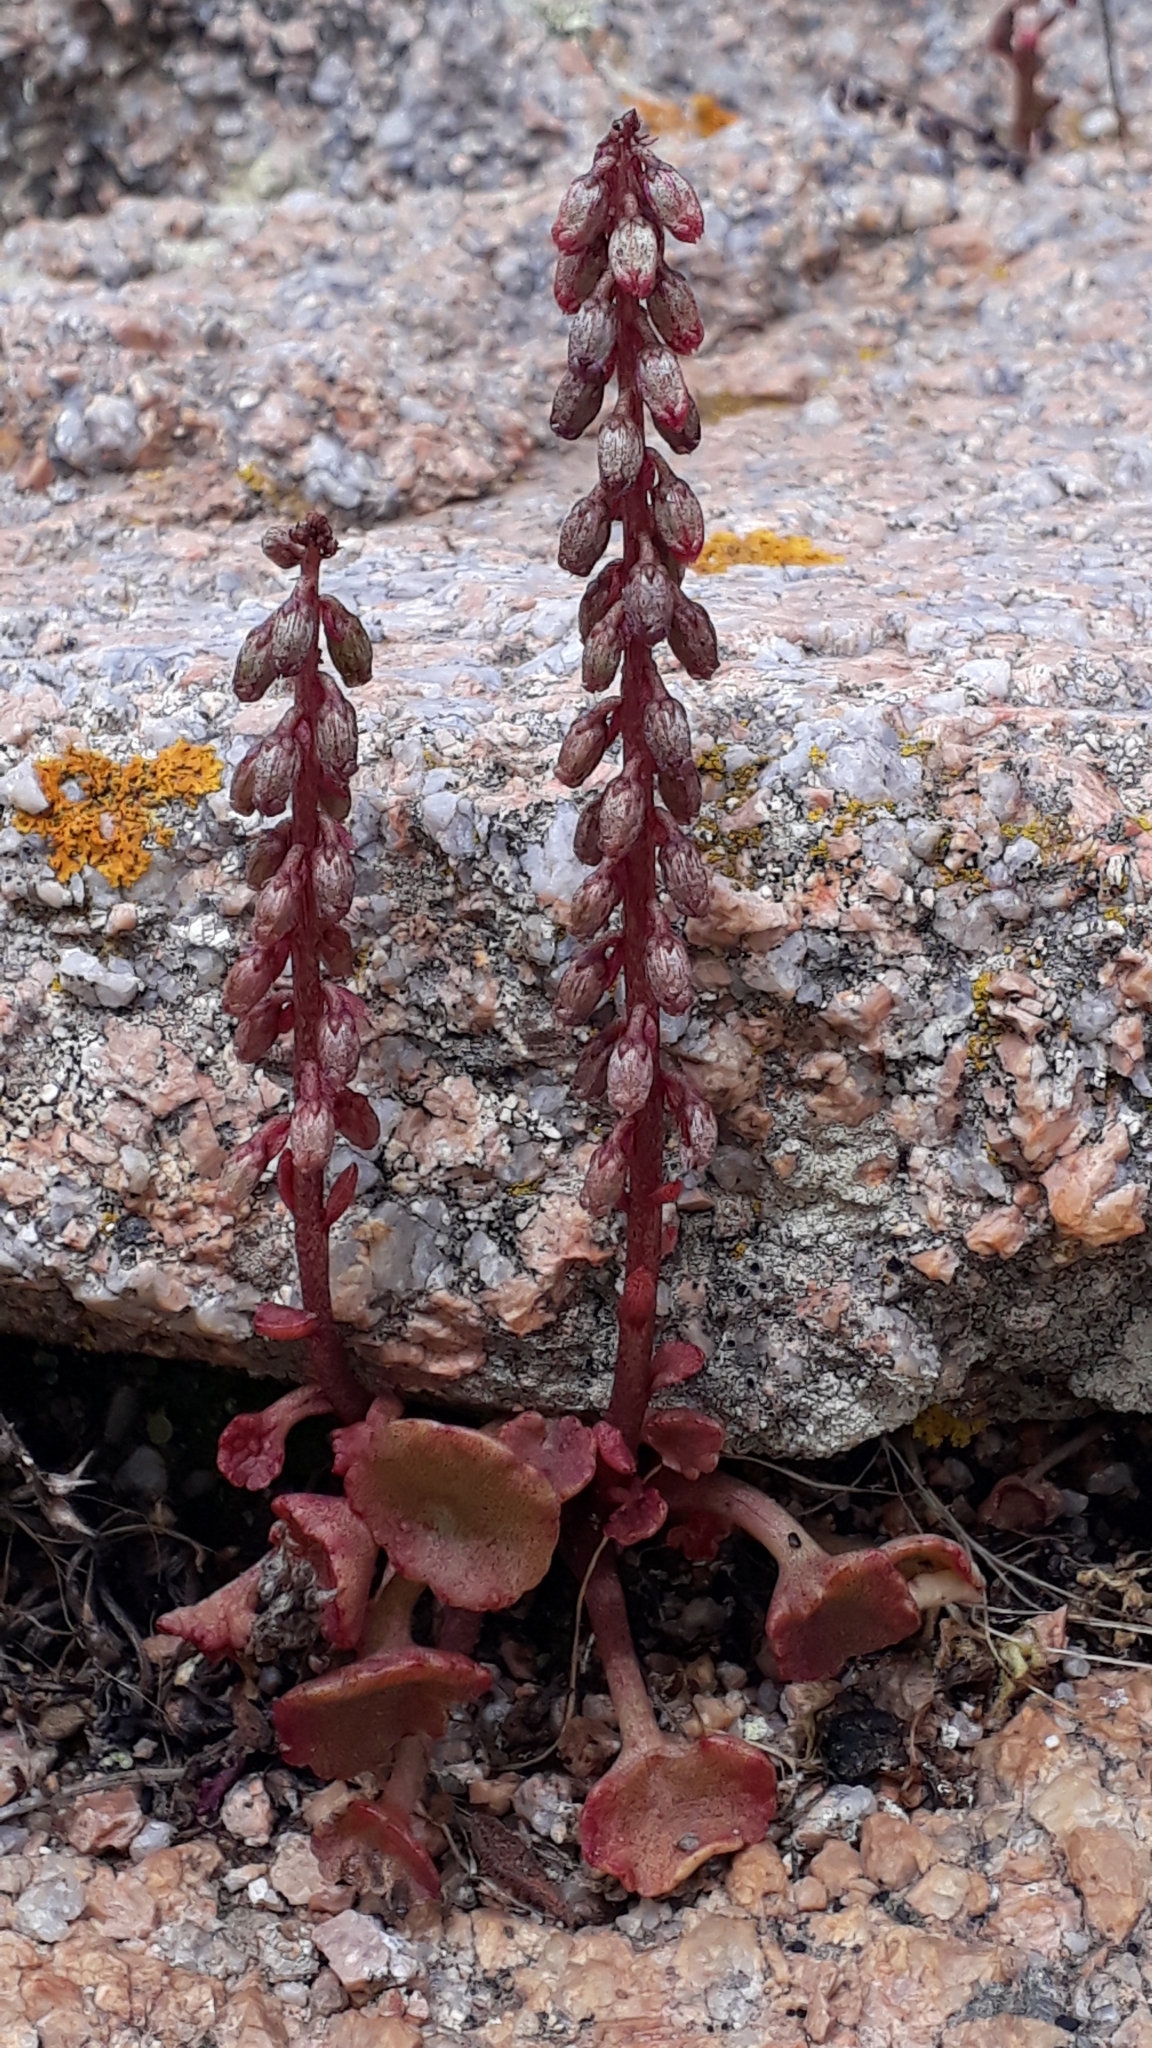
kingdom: Plantae
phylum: Tracheophyta
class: Magnoliopsida
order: Saxifragales
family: Crassulaceae
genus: Umbilicus
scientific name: Umbilicus rupestris
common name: Navelwort
